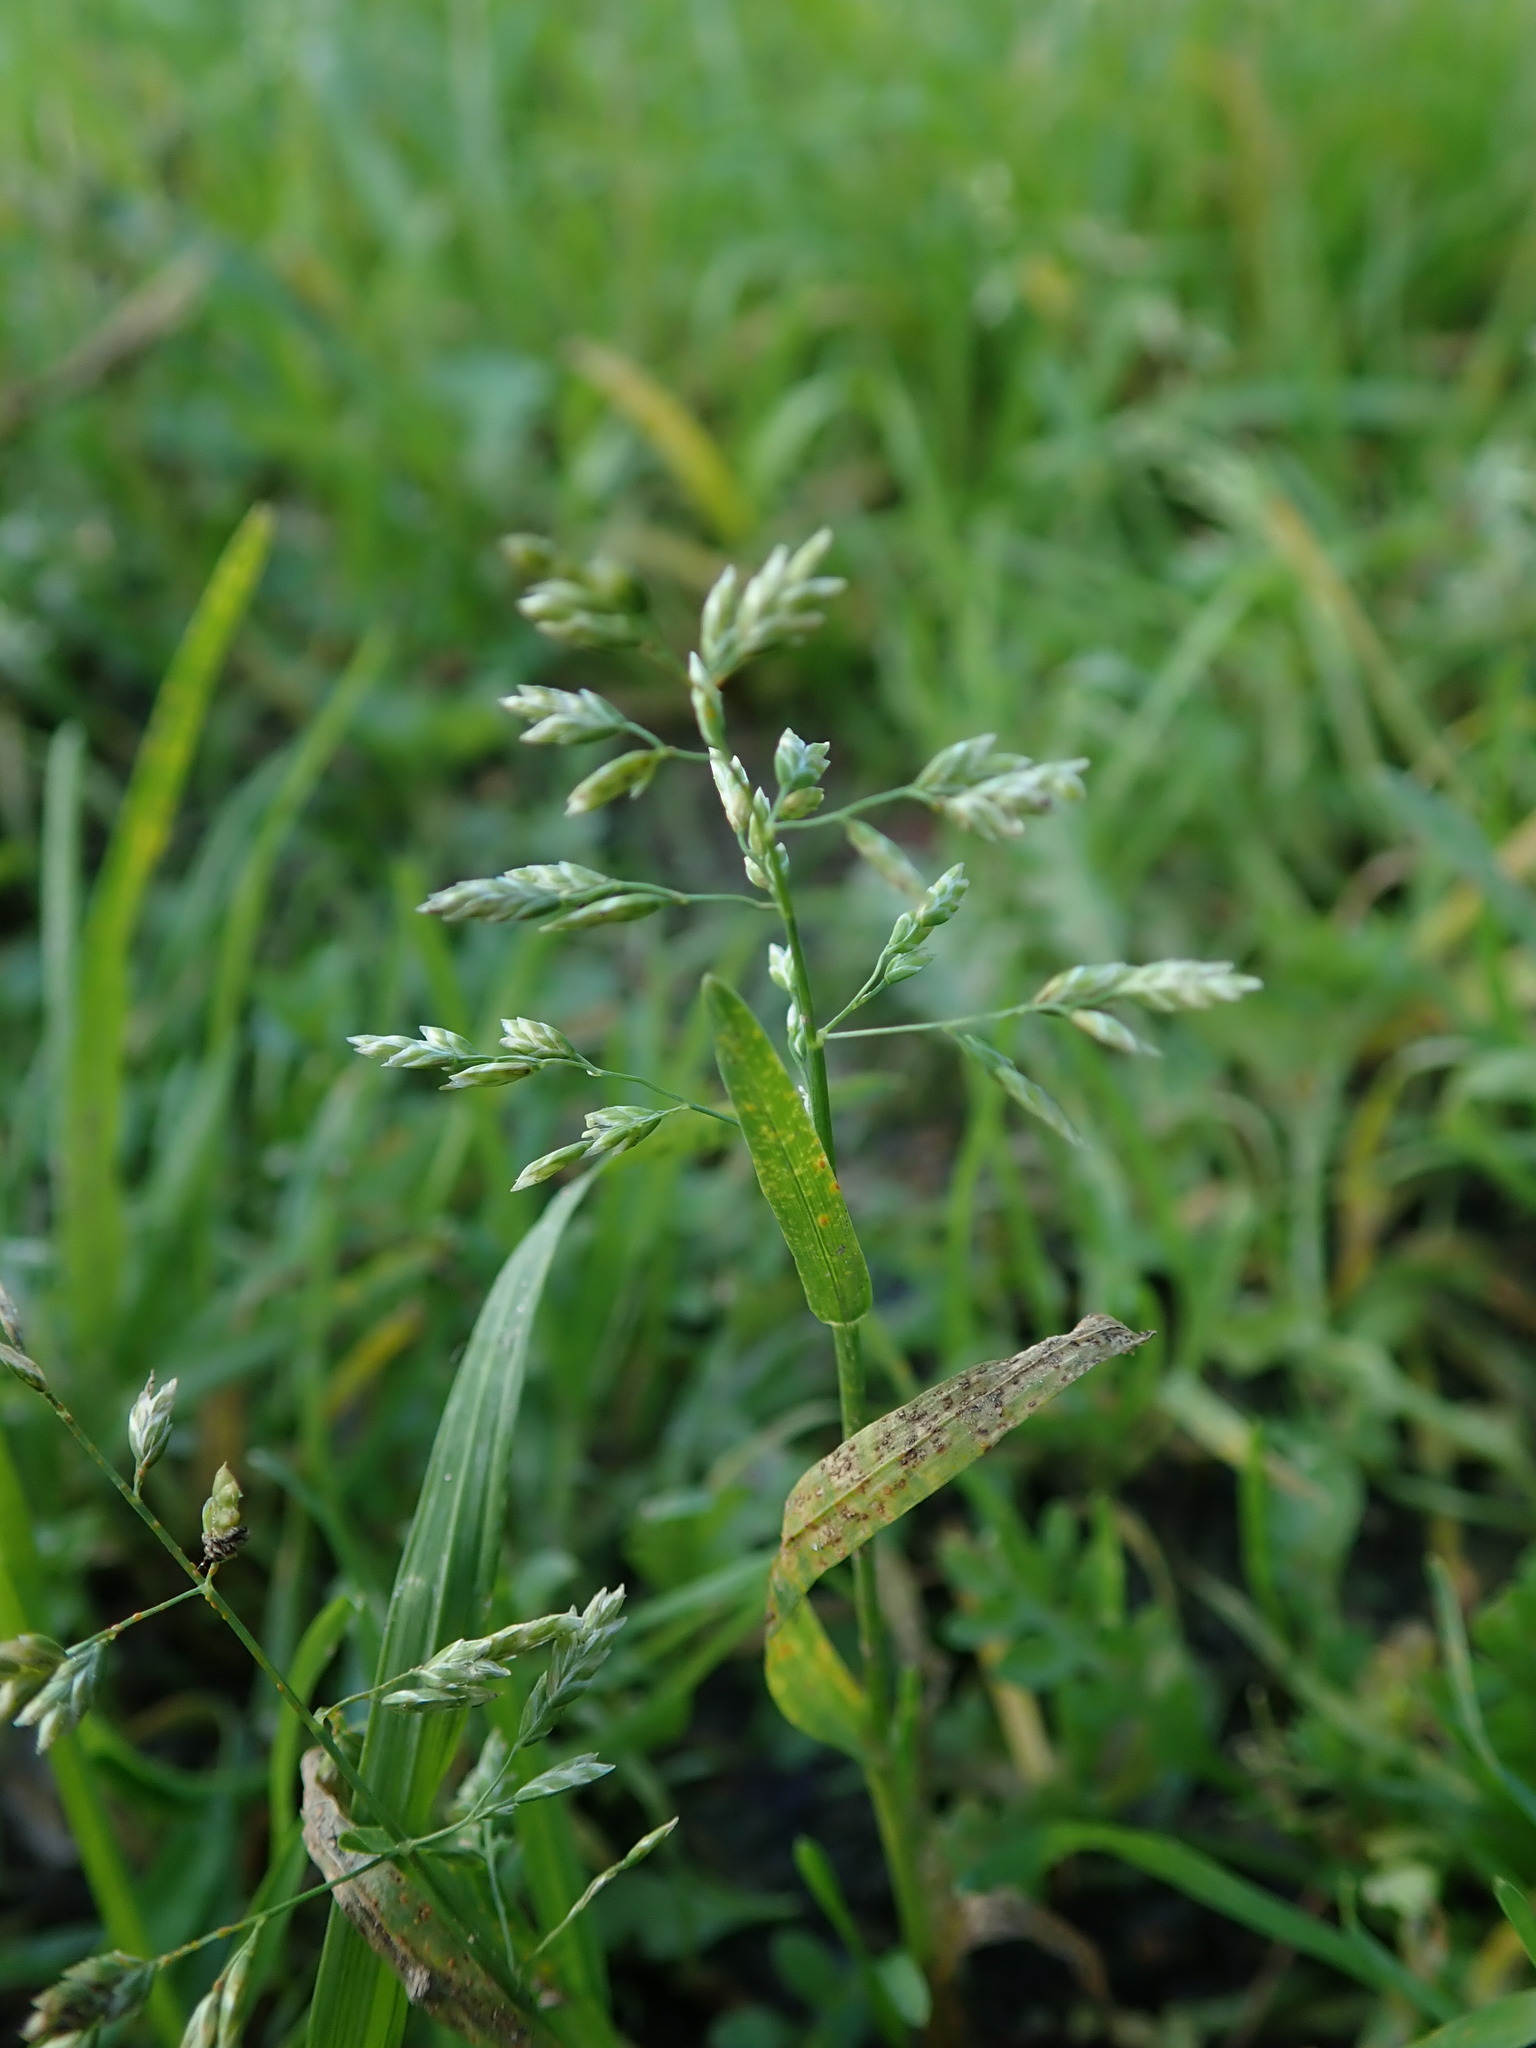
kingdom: Plantae
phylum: Tracheophyta
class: Liliopsida
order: Poales
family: Poaceae
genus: Poa
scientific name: Poa annua
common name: Annual bluegrass
